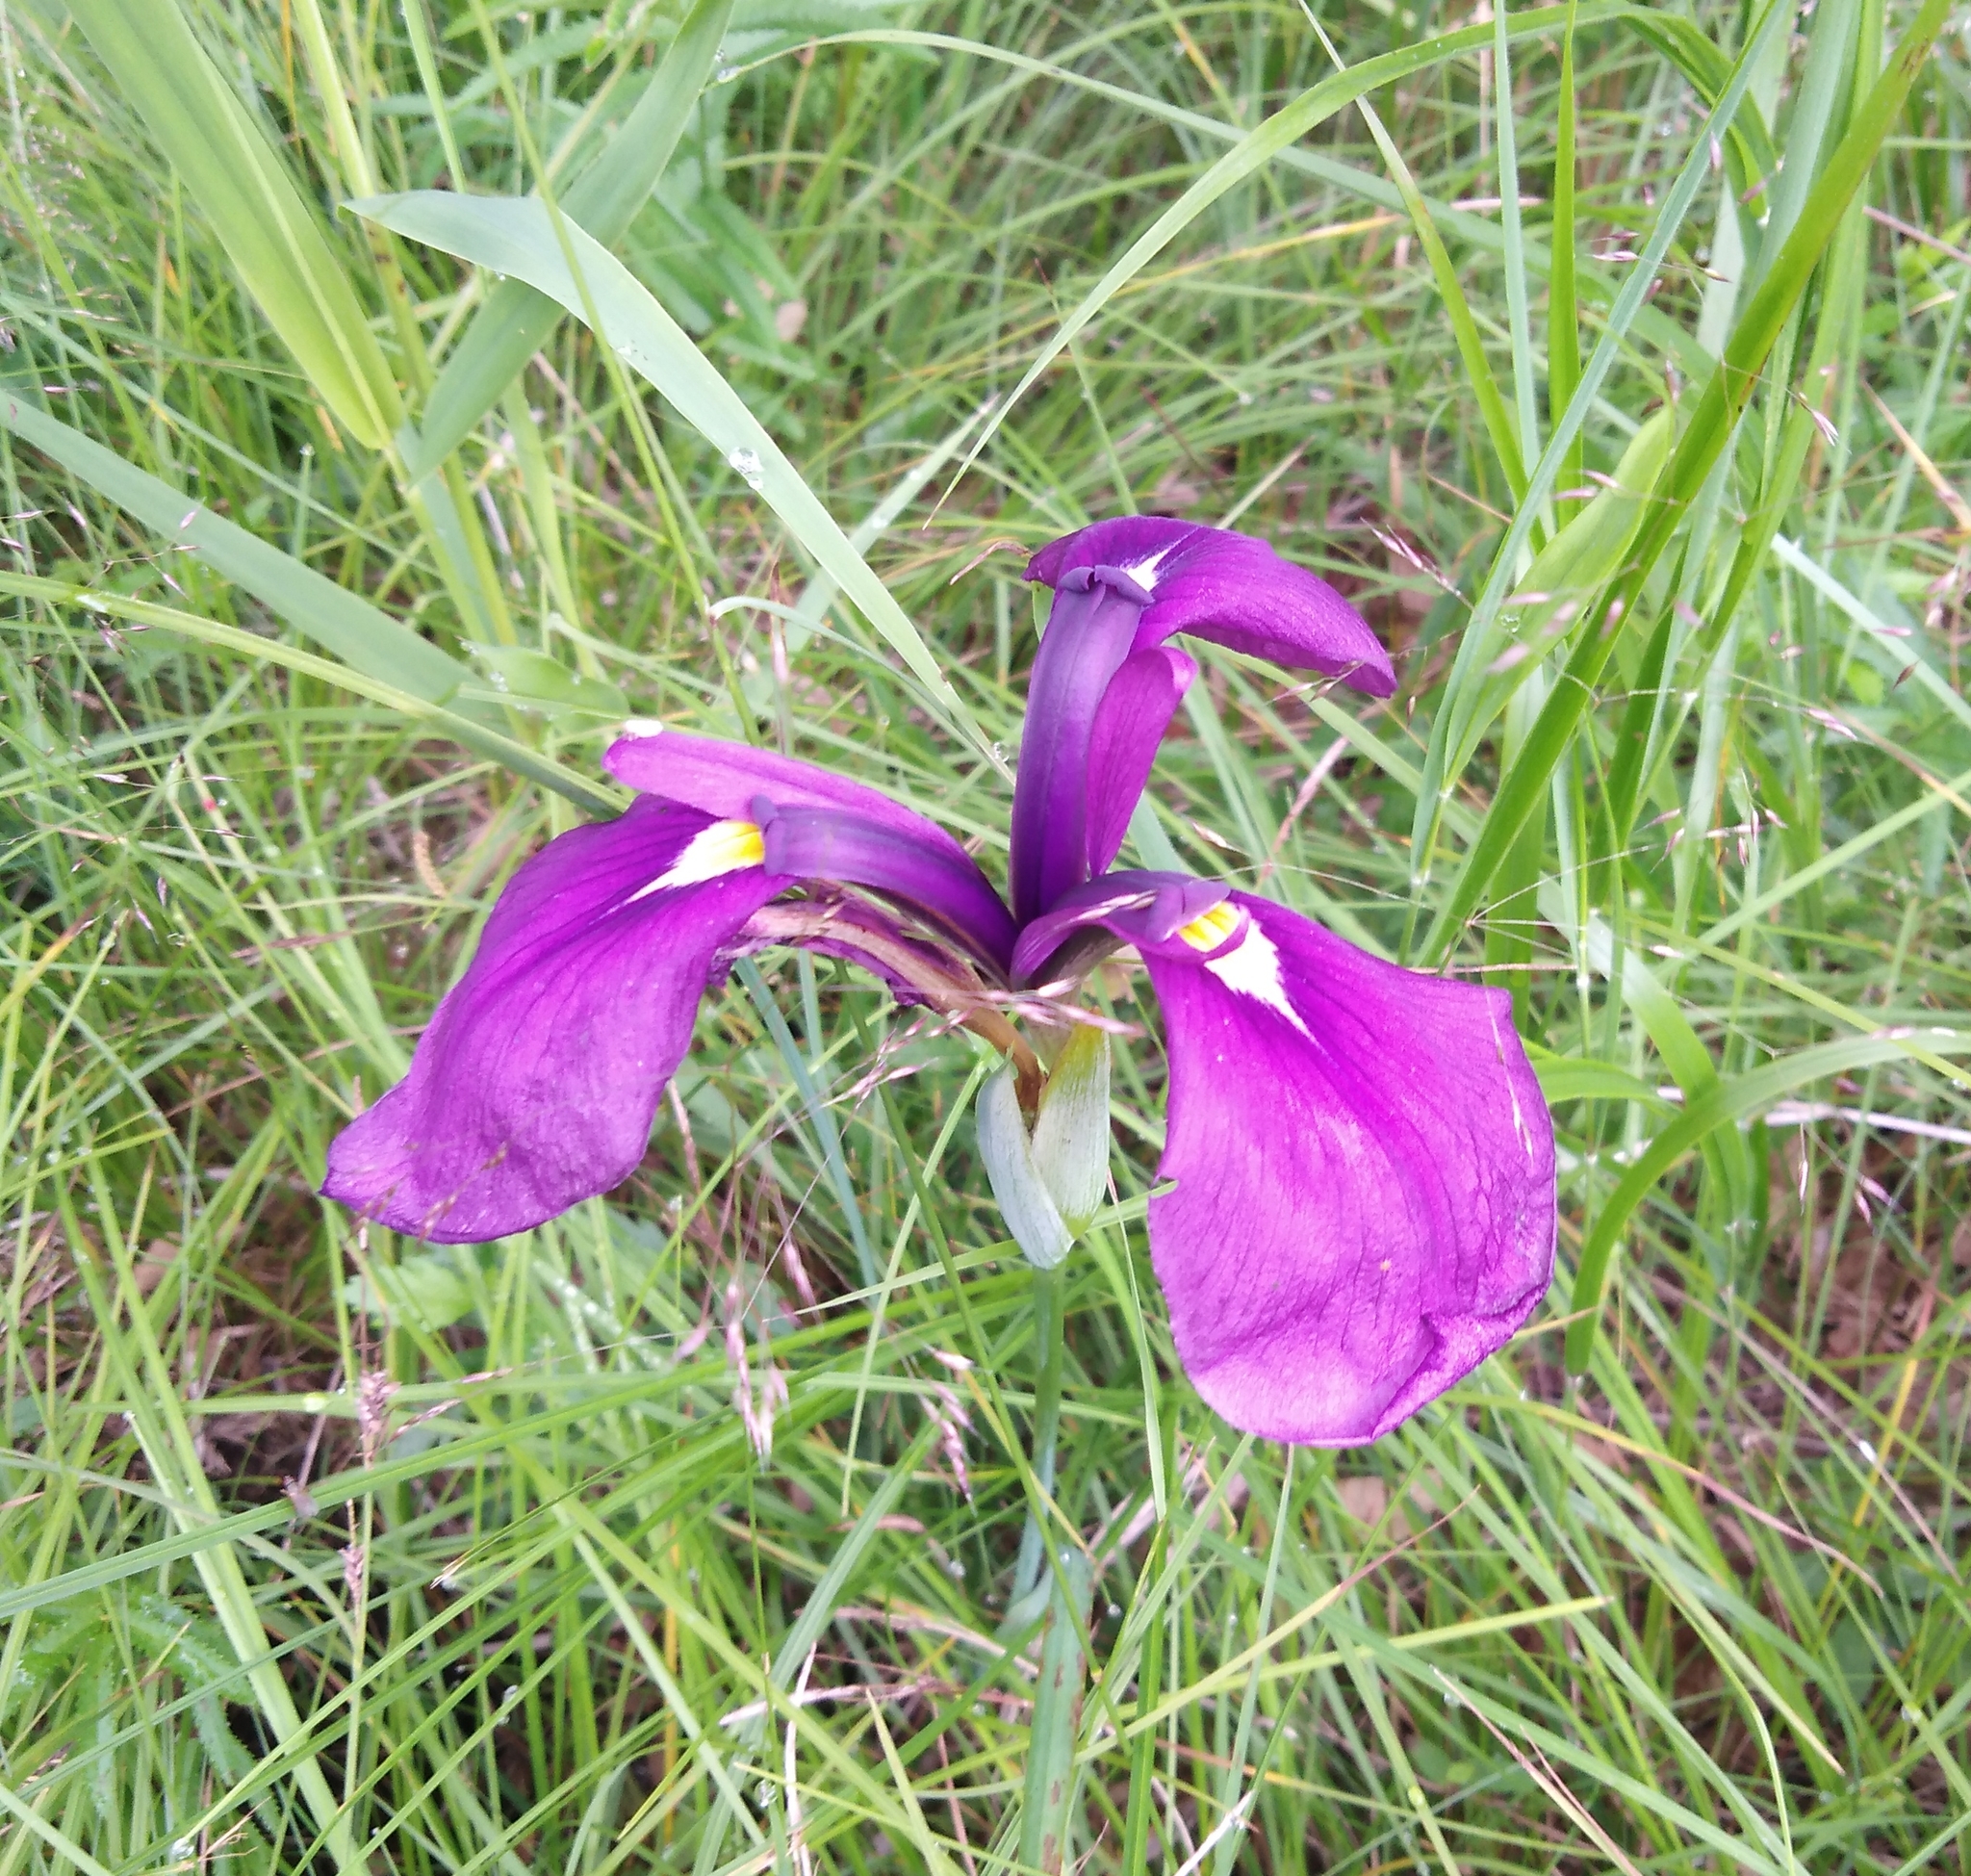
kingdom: Plantae
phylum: Tracheophyta
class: Liliopsida
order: Asparagales
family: Iridaceae
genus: Iris
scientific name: Iris ensata
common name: Beaked iris
